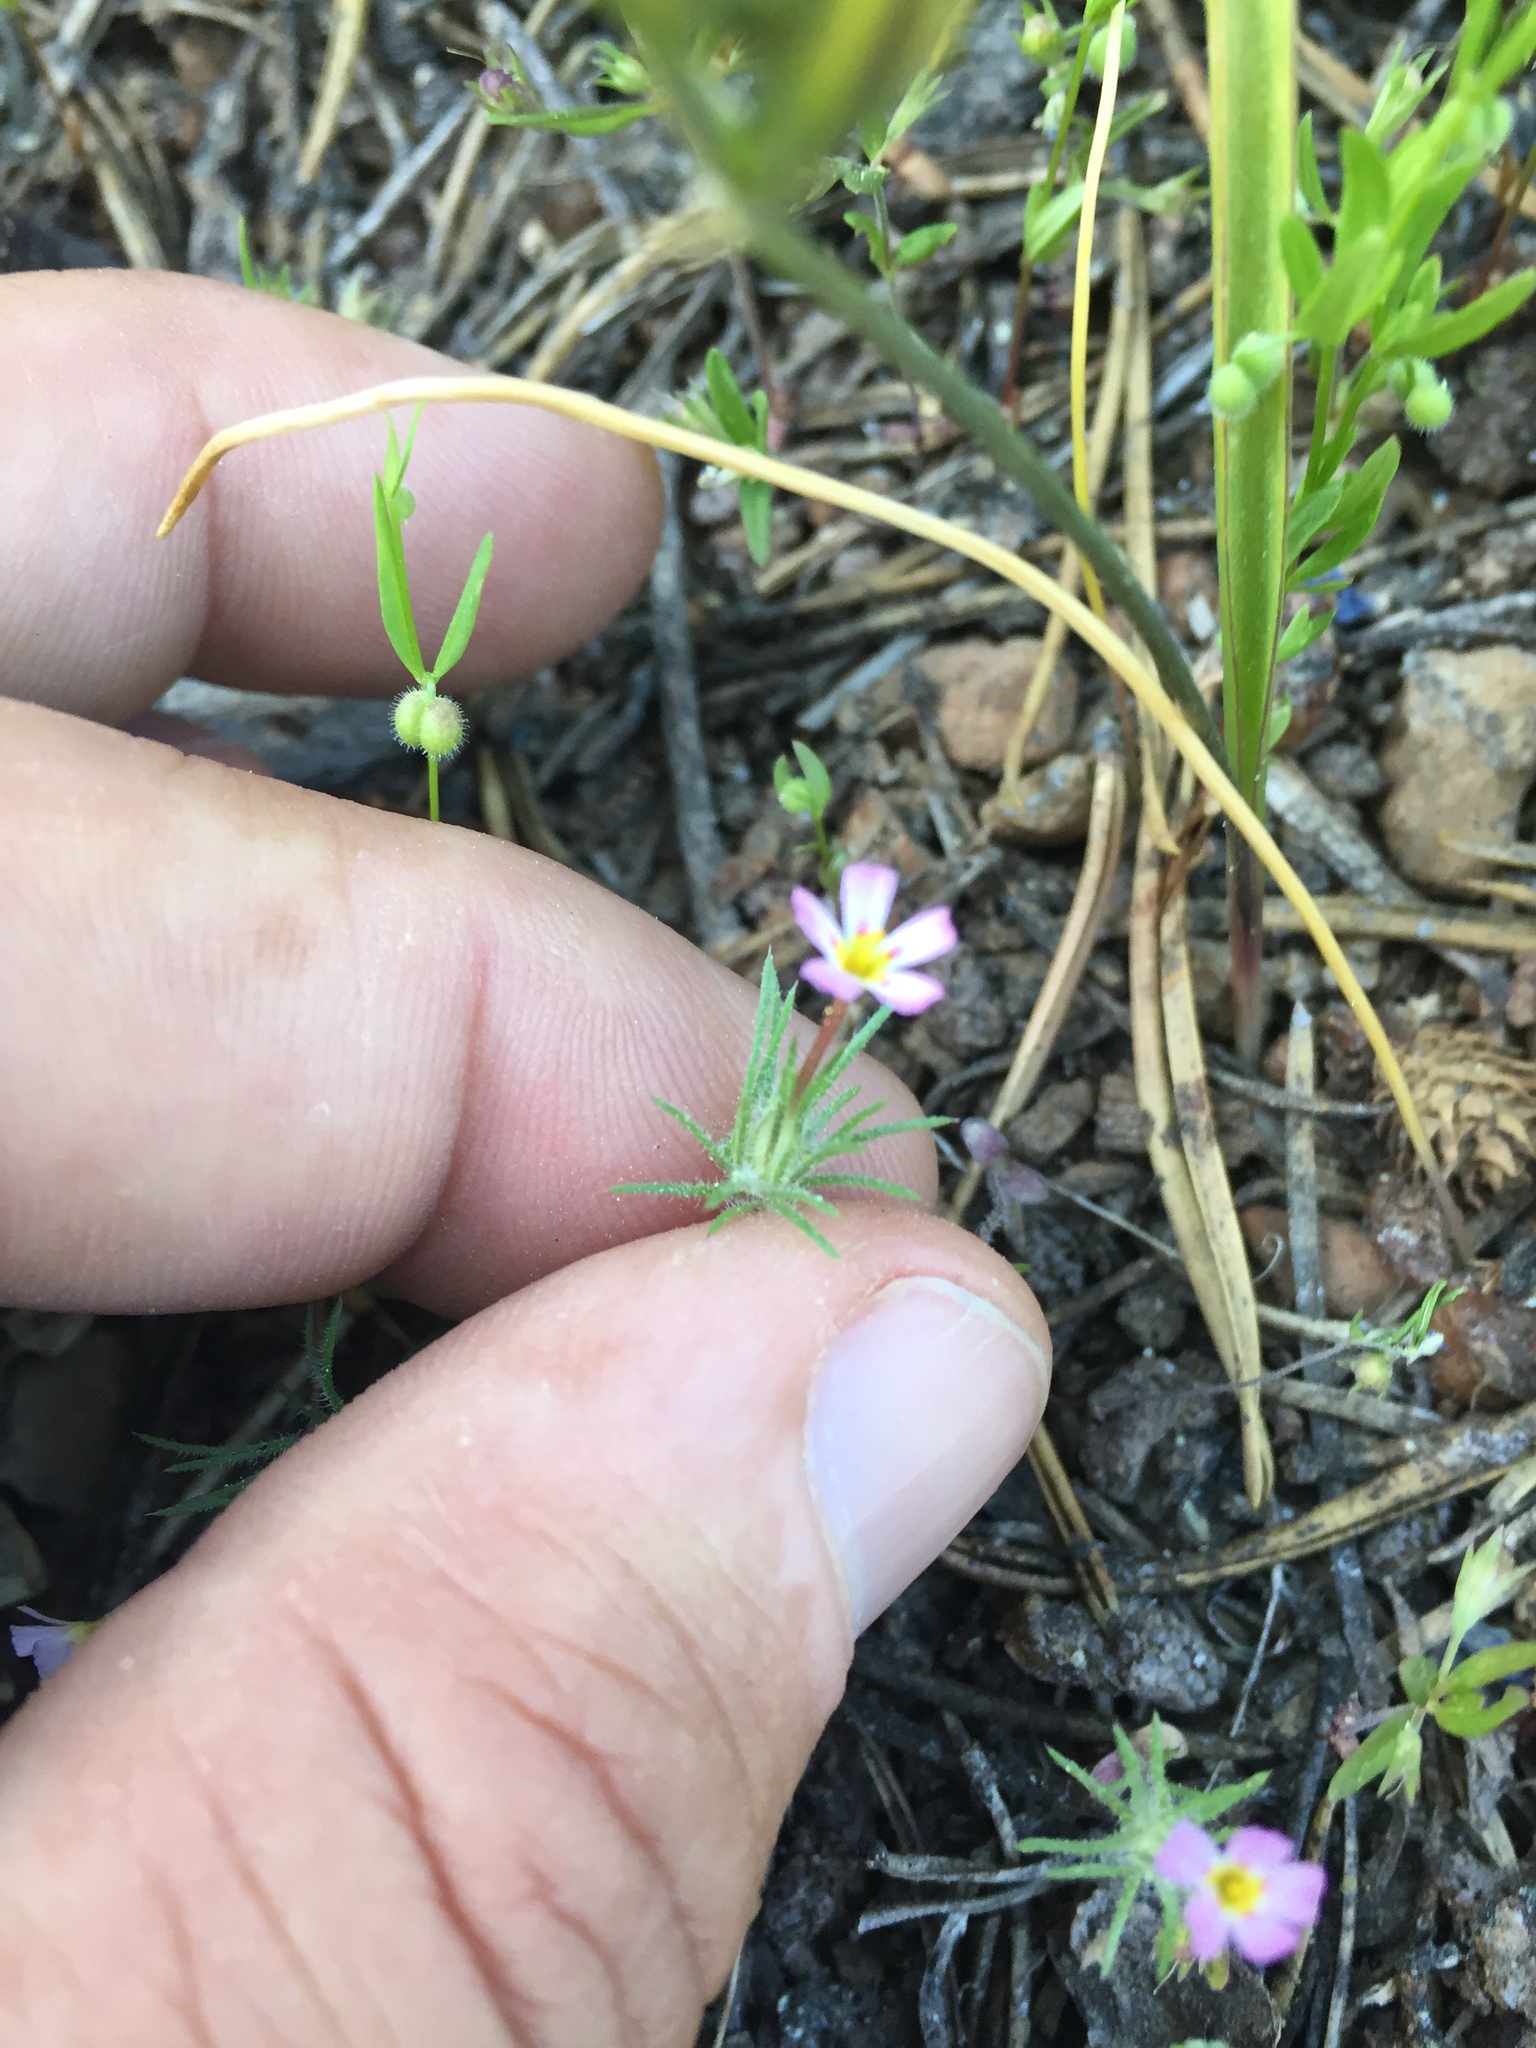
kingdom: Plantae
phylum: Tracheophyta
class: Magnoliopsida
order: Ericales
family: Polemoniaceae
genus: Leptosiphon
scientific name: Leptosiphon ciliatus
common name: Whiskerbrush
